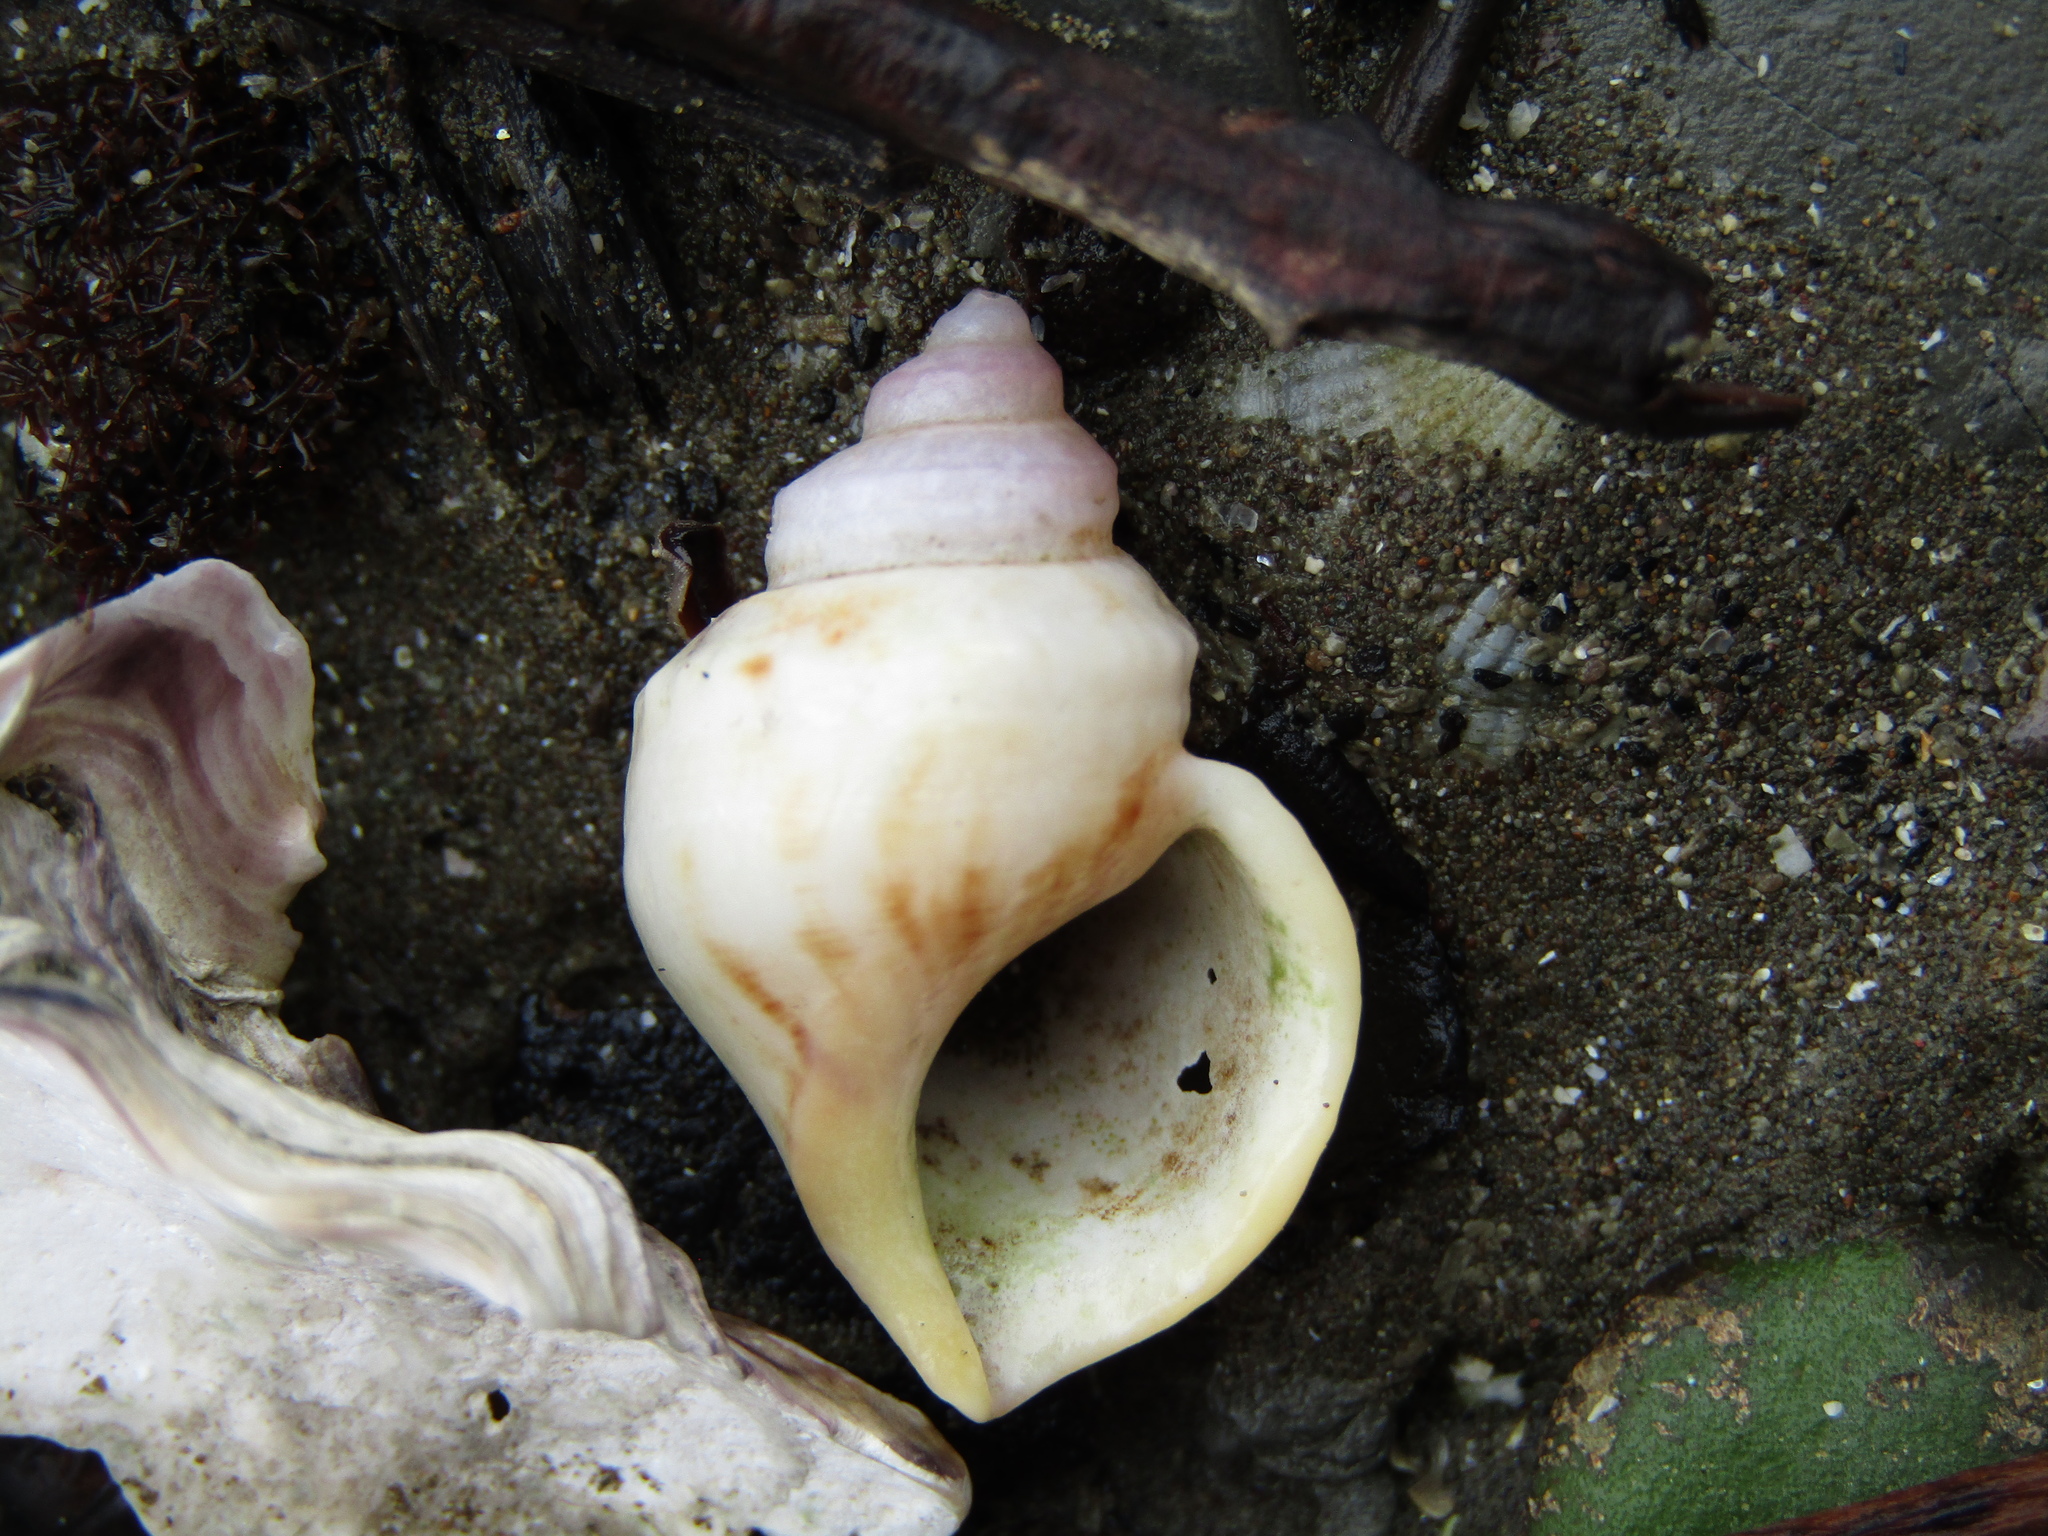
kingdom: Animalia
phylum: Mollusca
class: Gastropoda
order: Littorinimorpha
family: Struthiolariidae
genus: Pelicaria
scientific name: Pelicaria vermis
